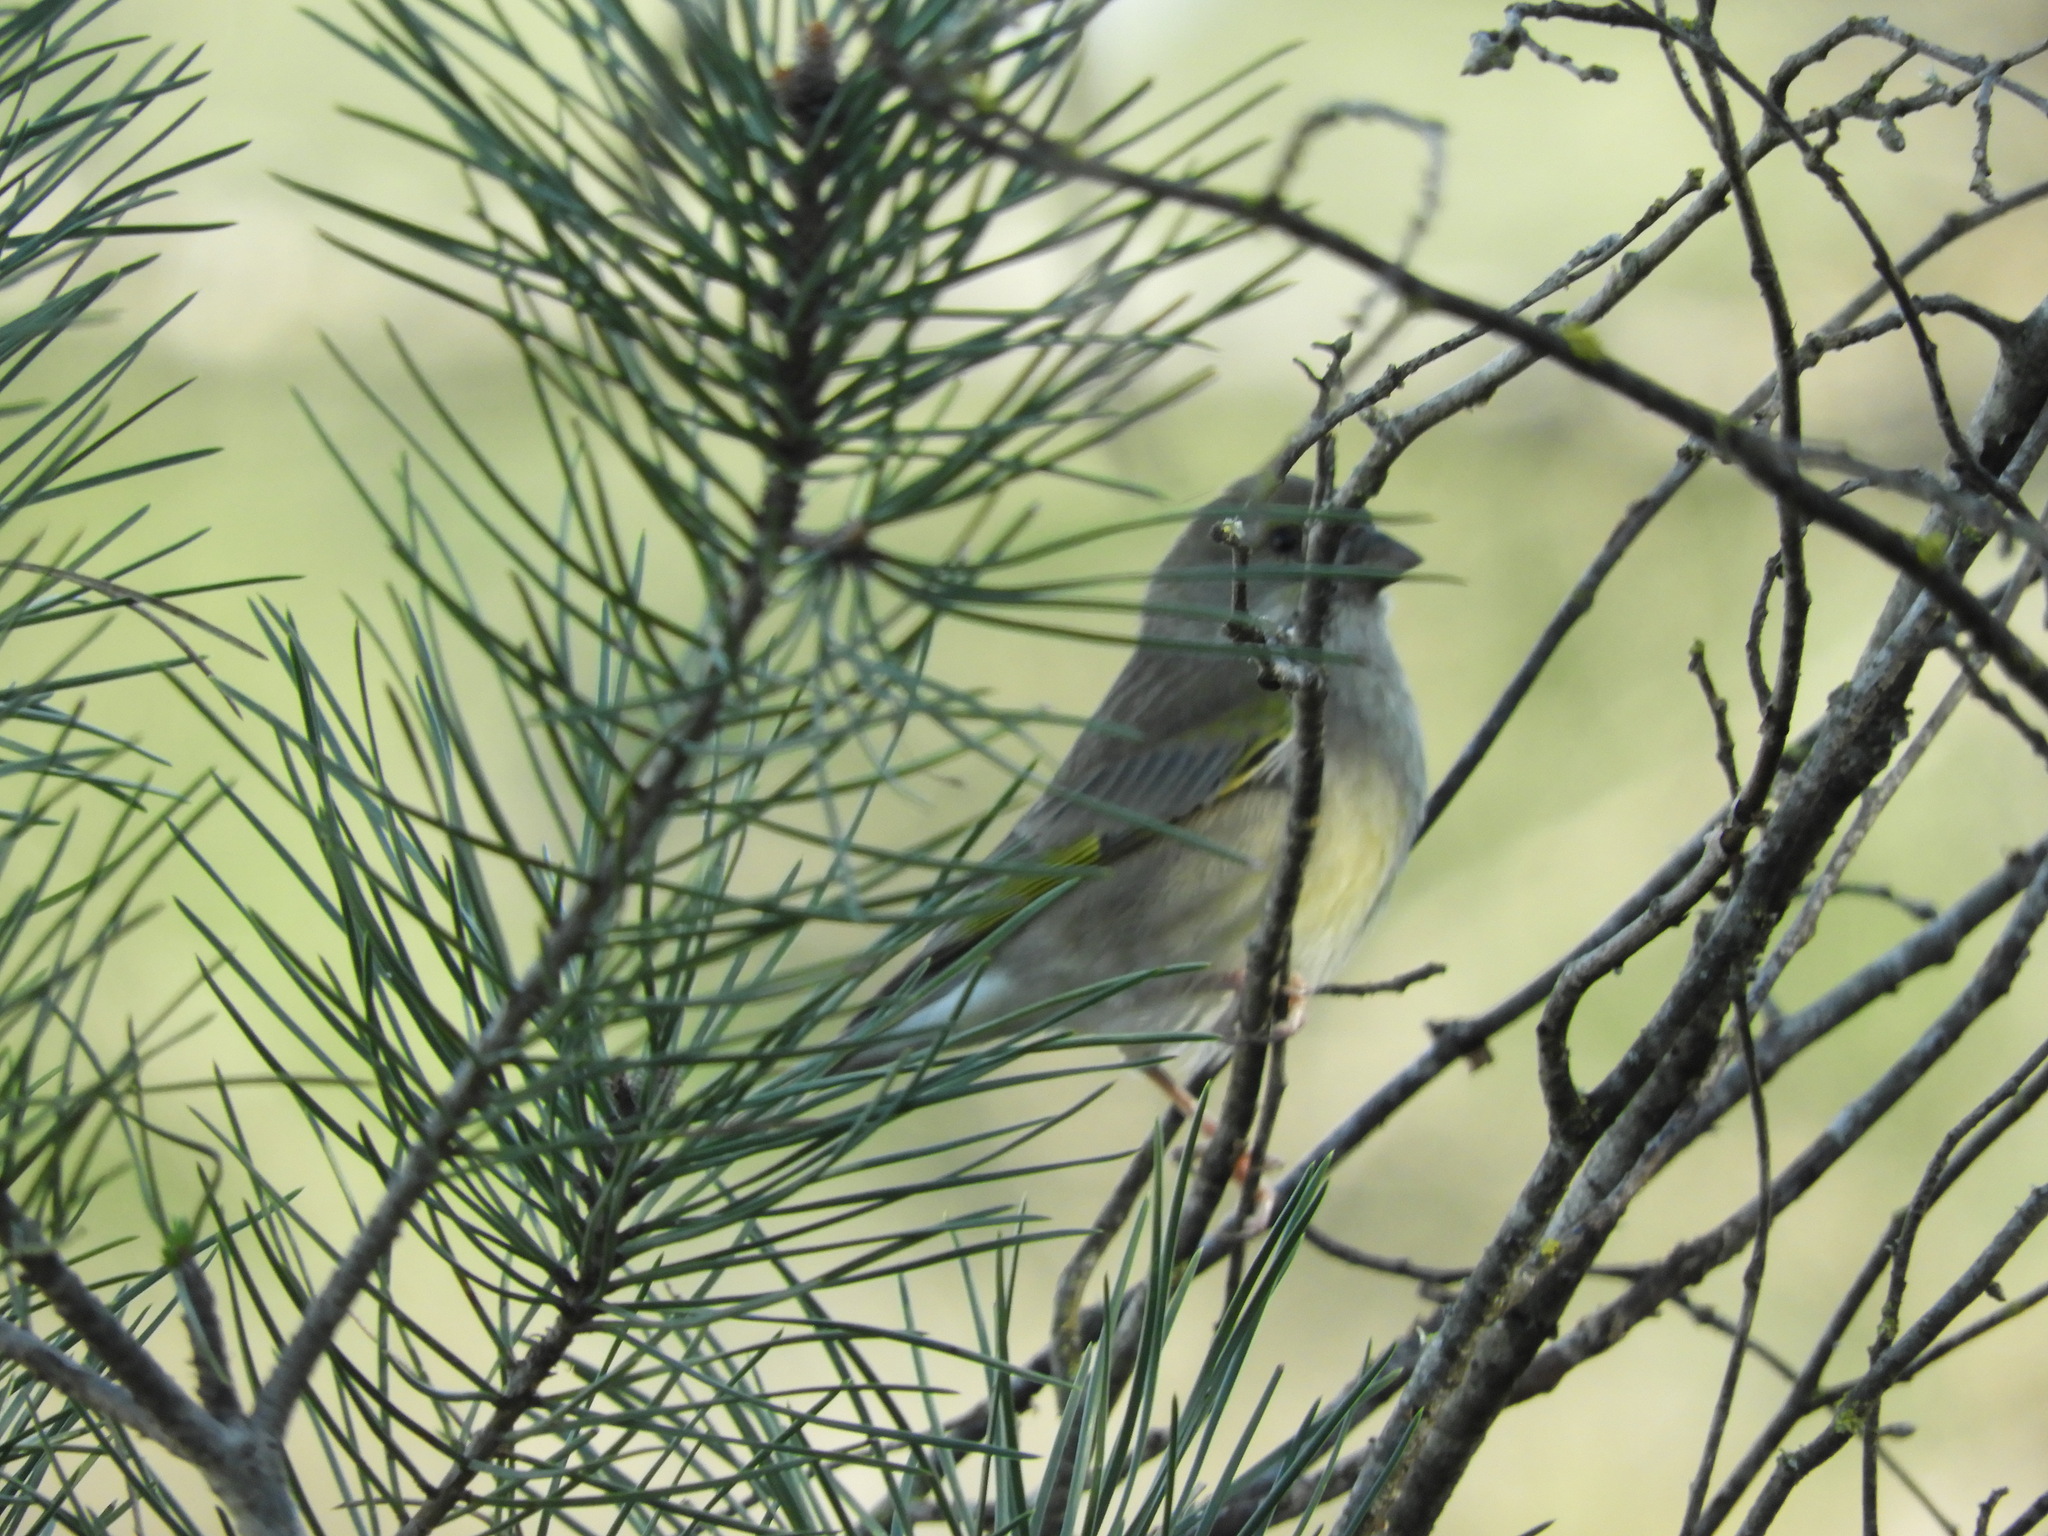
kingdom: Plantae
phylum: Tracheophyta
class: Liliopsida
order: Poales
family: Poaceae
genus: Chloris
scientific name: Chloris chloris
